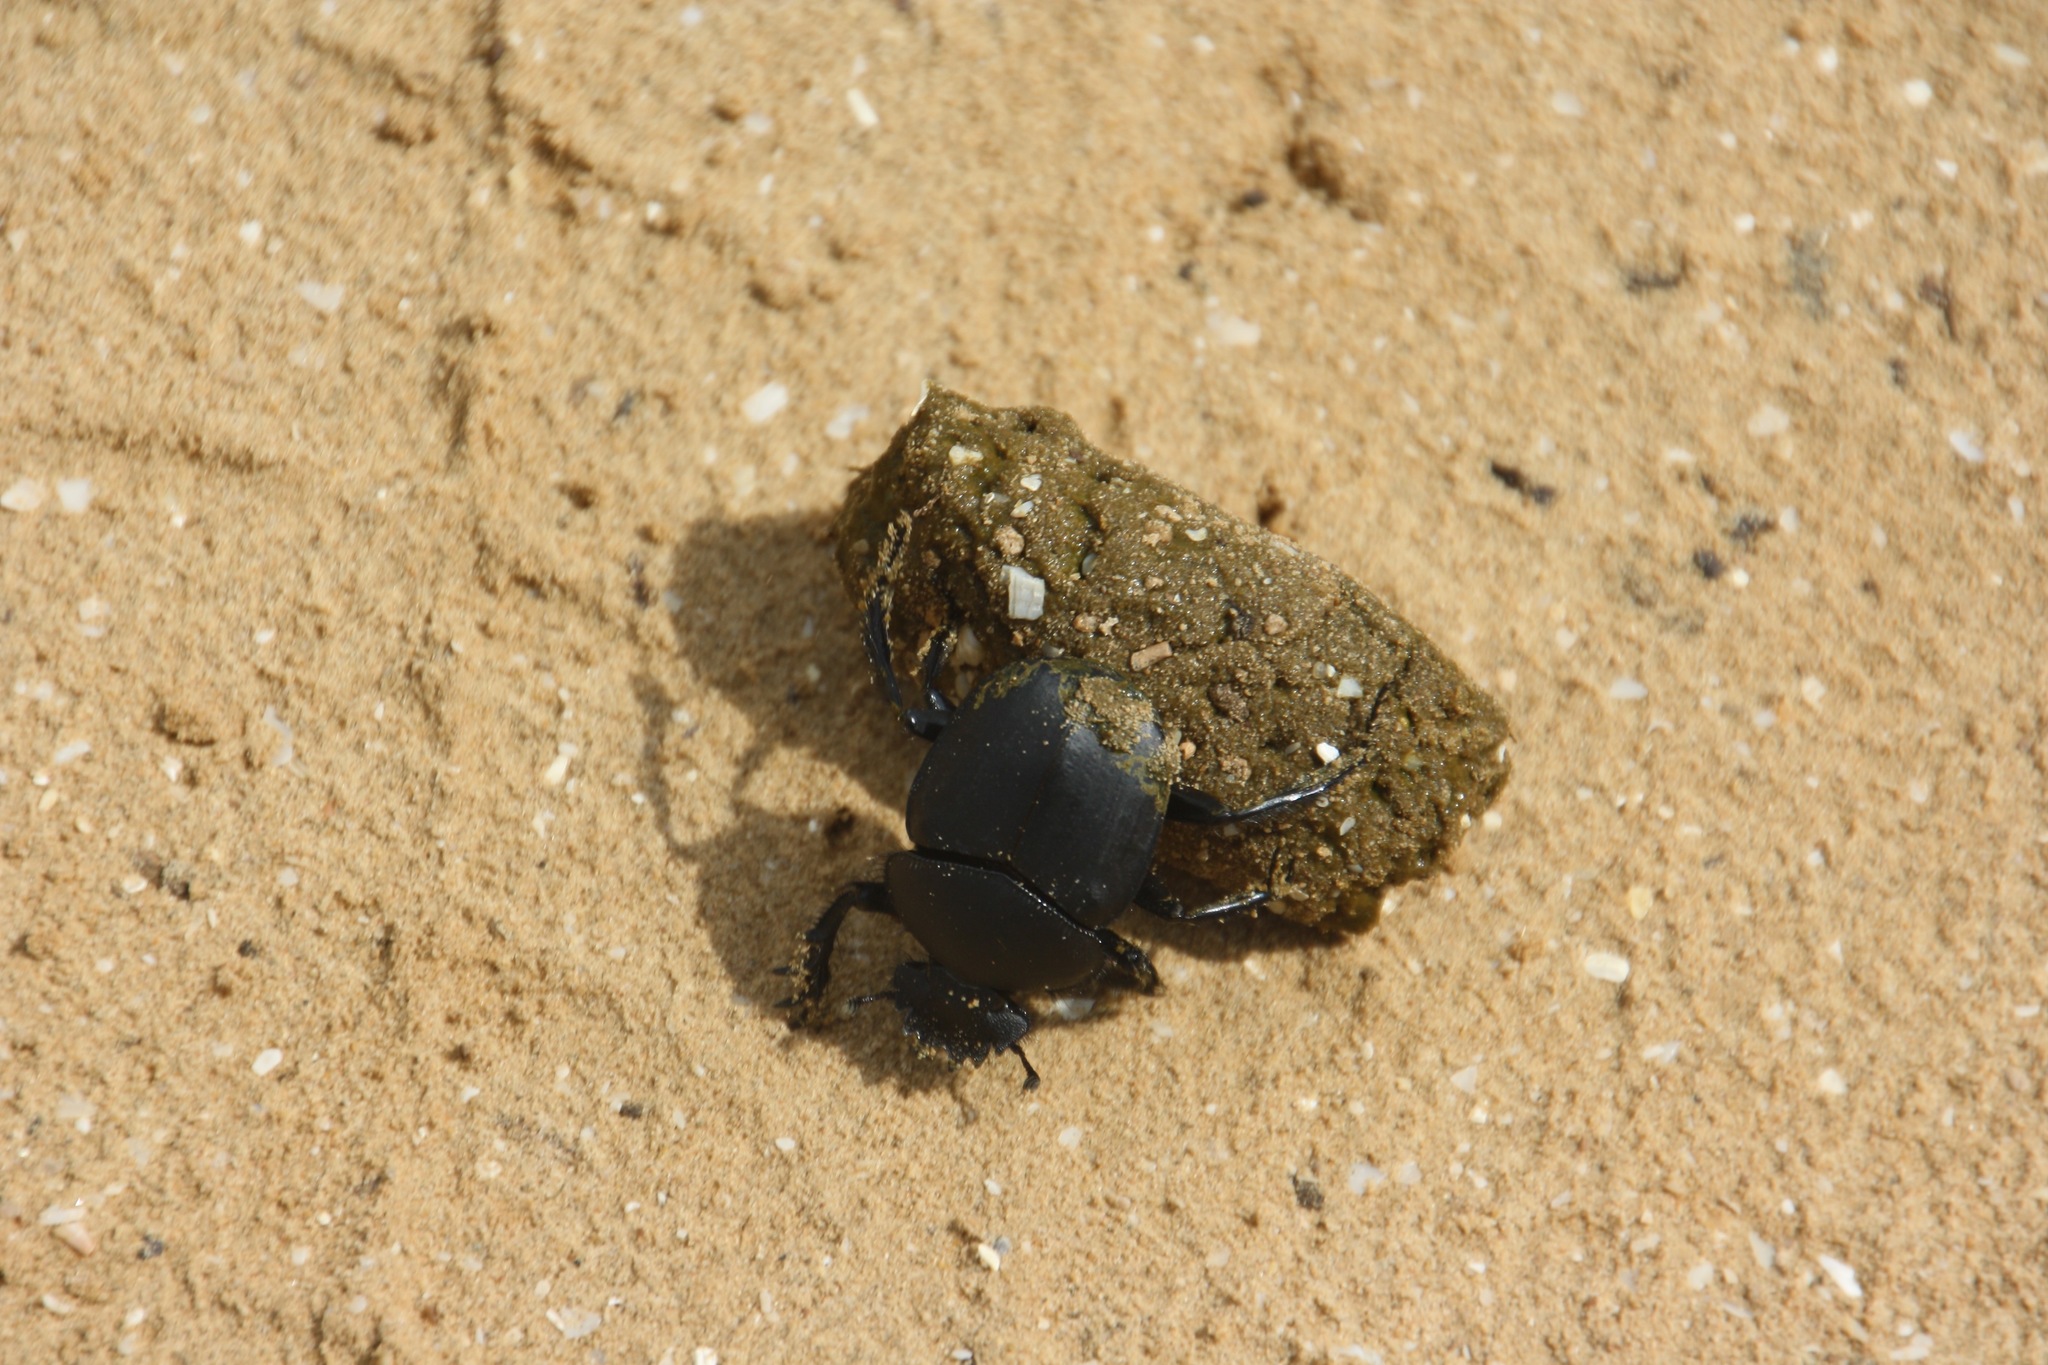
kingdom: Animalia
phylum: Arthropoda
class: Insecta
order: Coleoptera
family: Scarabaeidae
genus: Scarabaeus
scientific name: Scarabaeus pius
